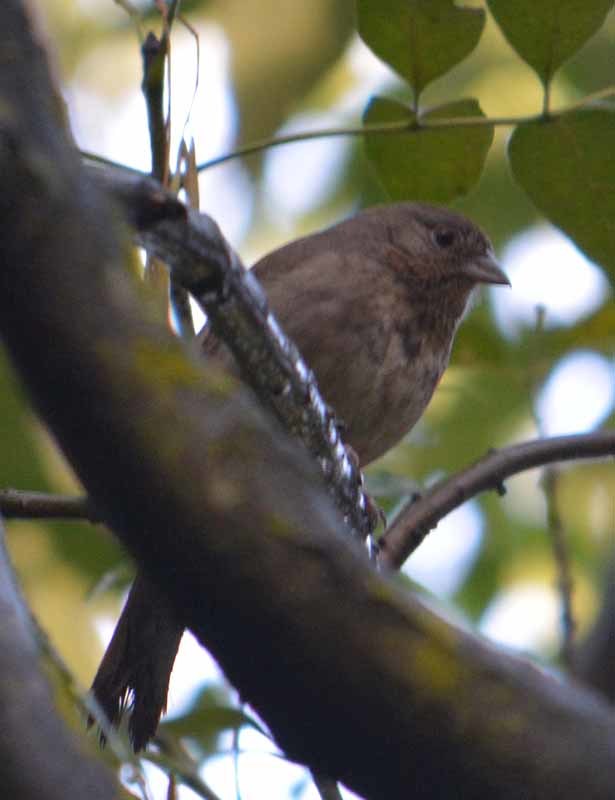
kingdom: Animalia
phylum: Chordata
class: Aves
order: Passeriformes
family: Passerellidae
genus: Melozone
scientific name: Melozone fusca
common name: Canyon towhee
